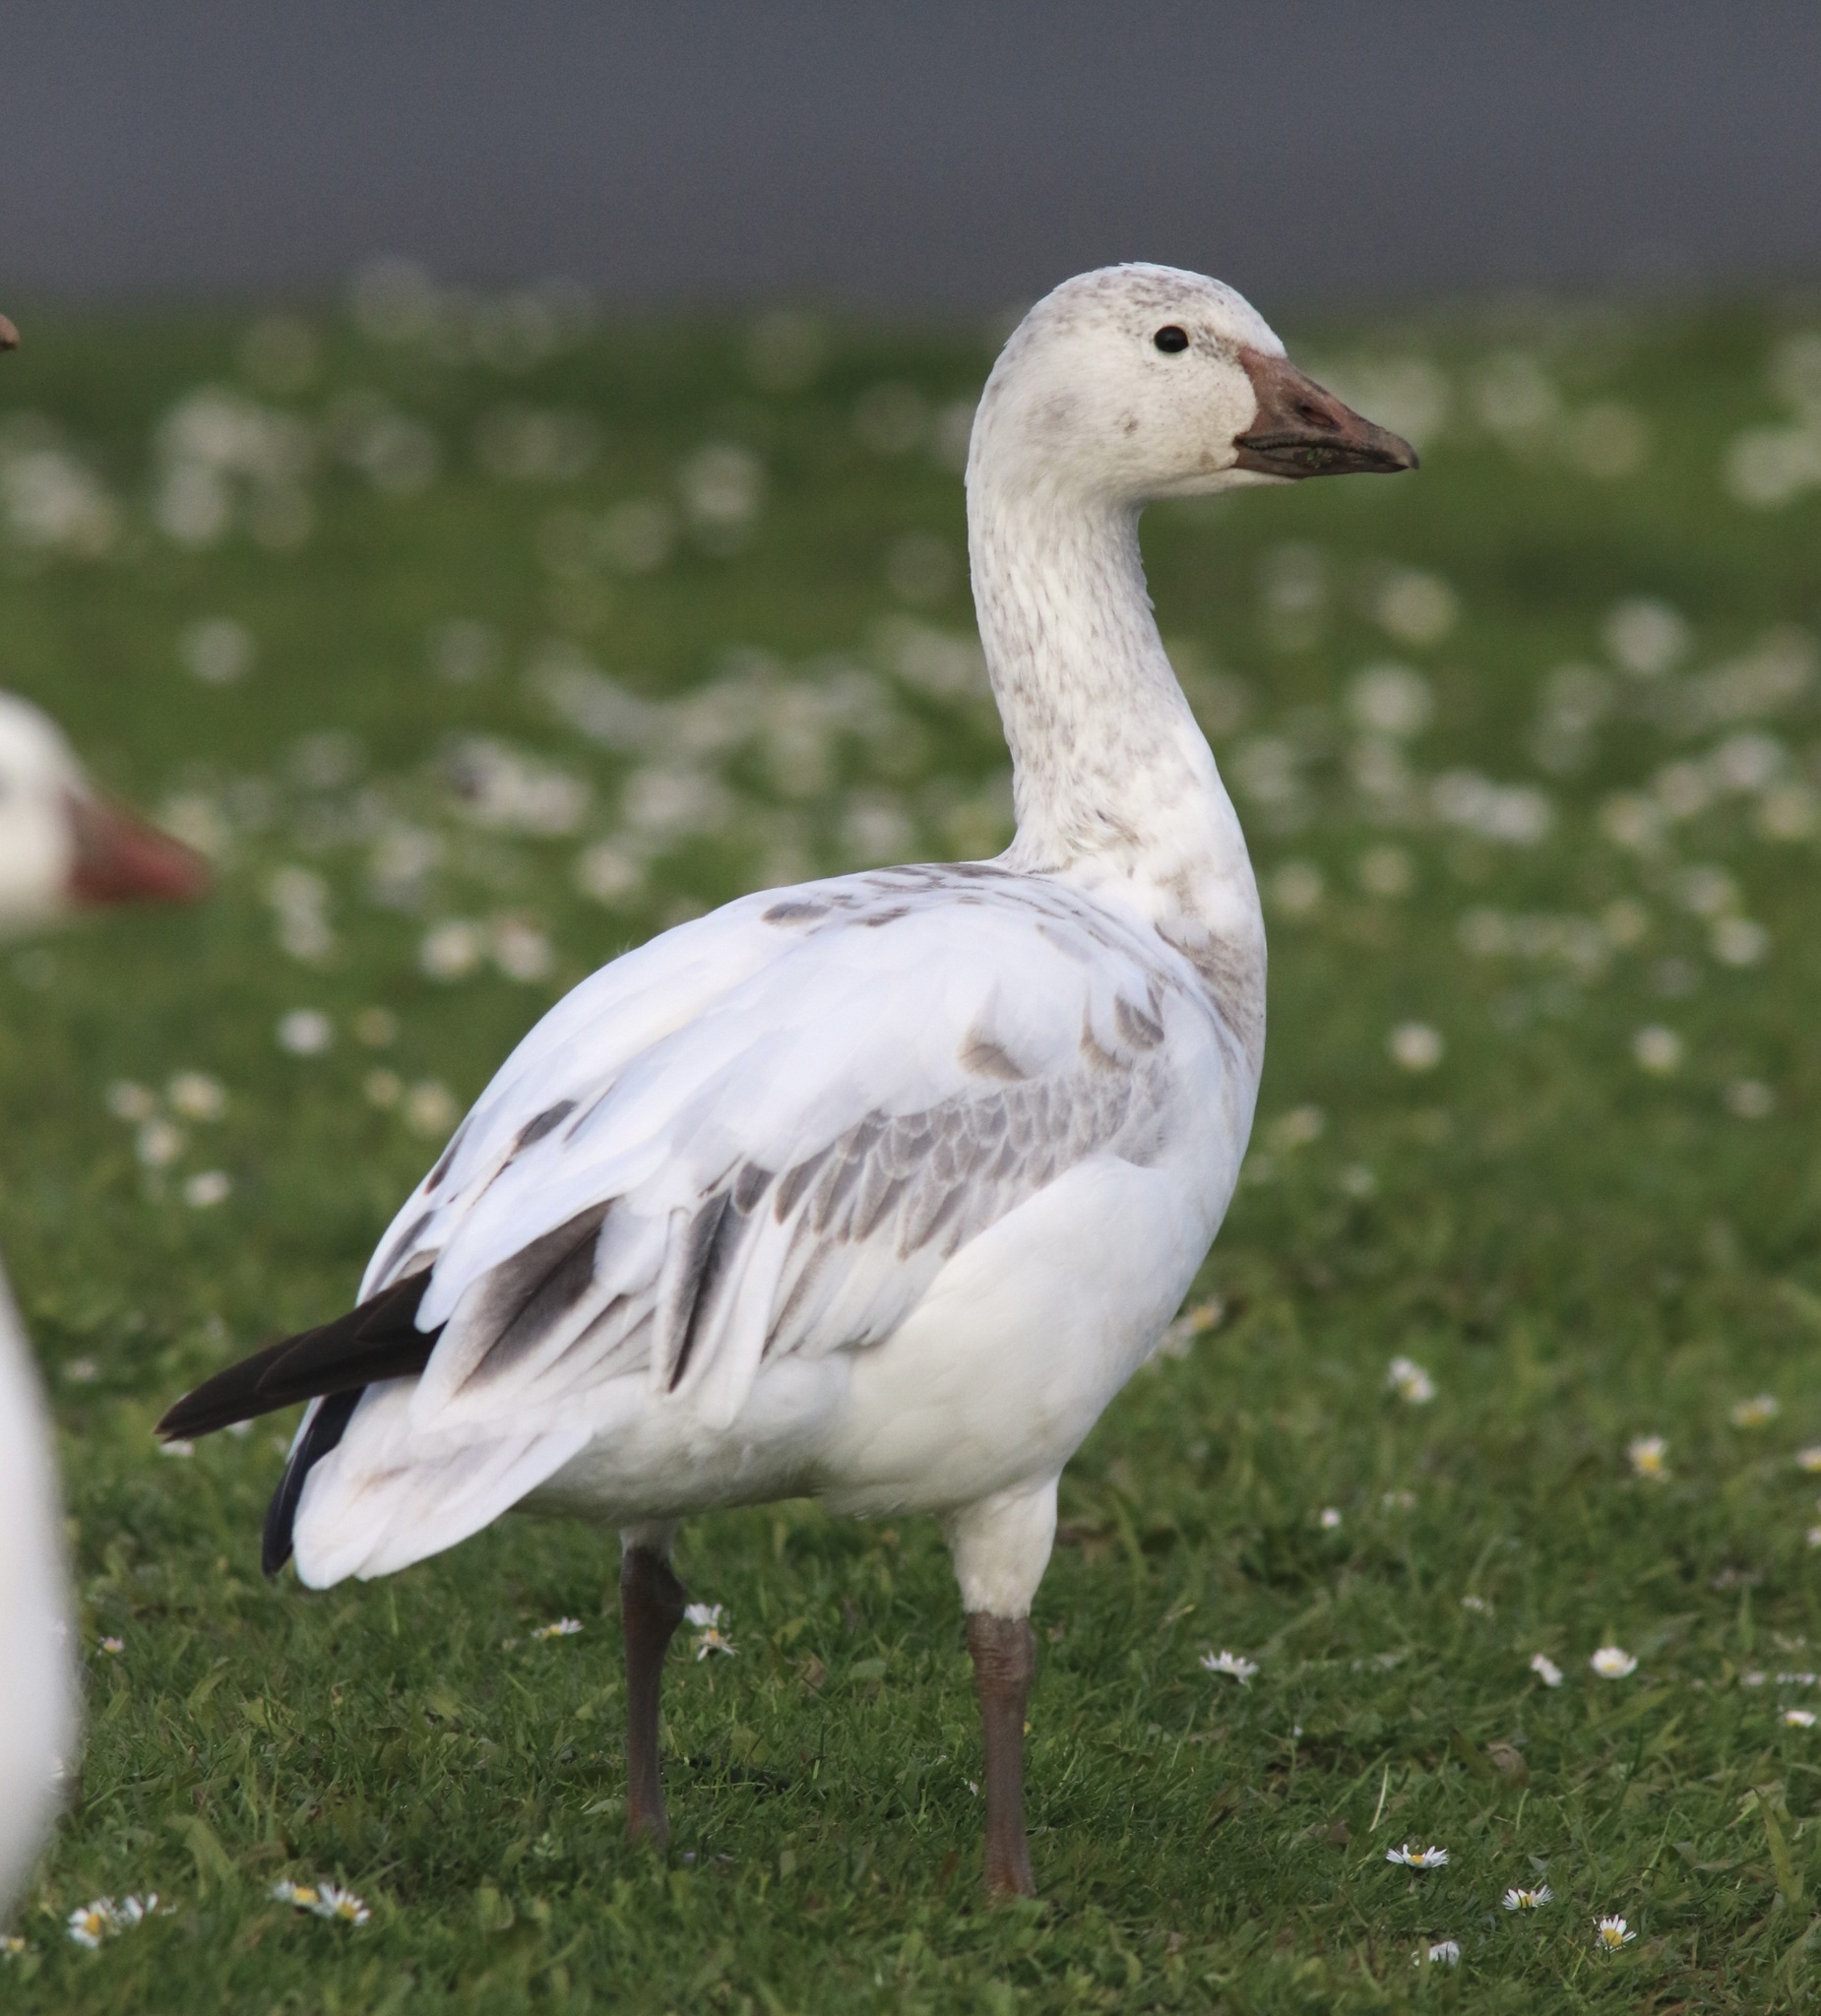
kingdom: Animalia
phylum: Chordata
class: Aves
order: Anseriformes
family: Anatidae
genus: Anser
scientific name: Anser caerulescens
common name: Snow goose
